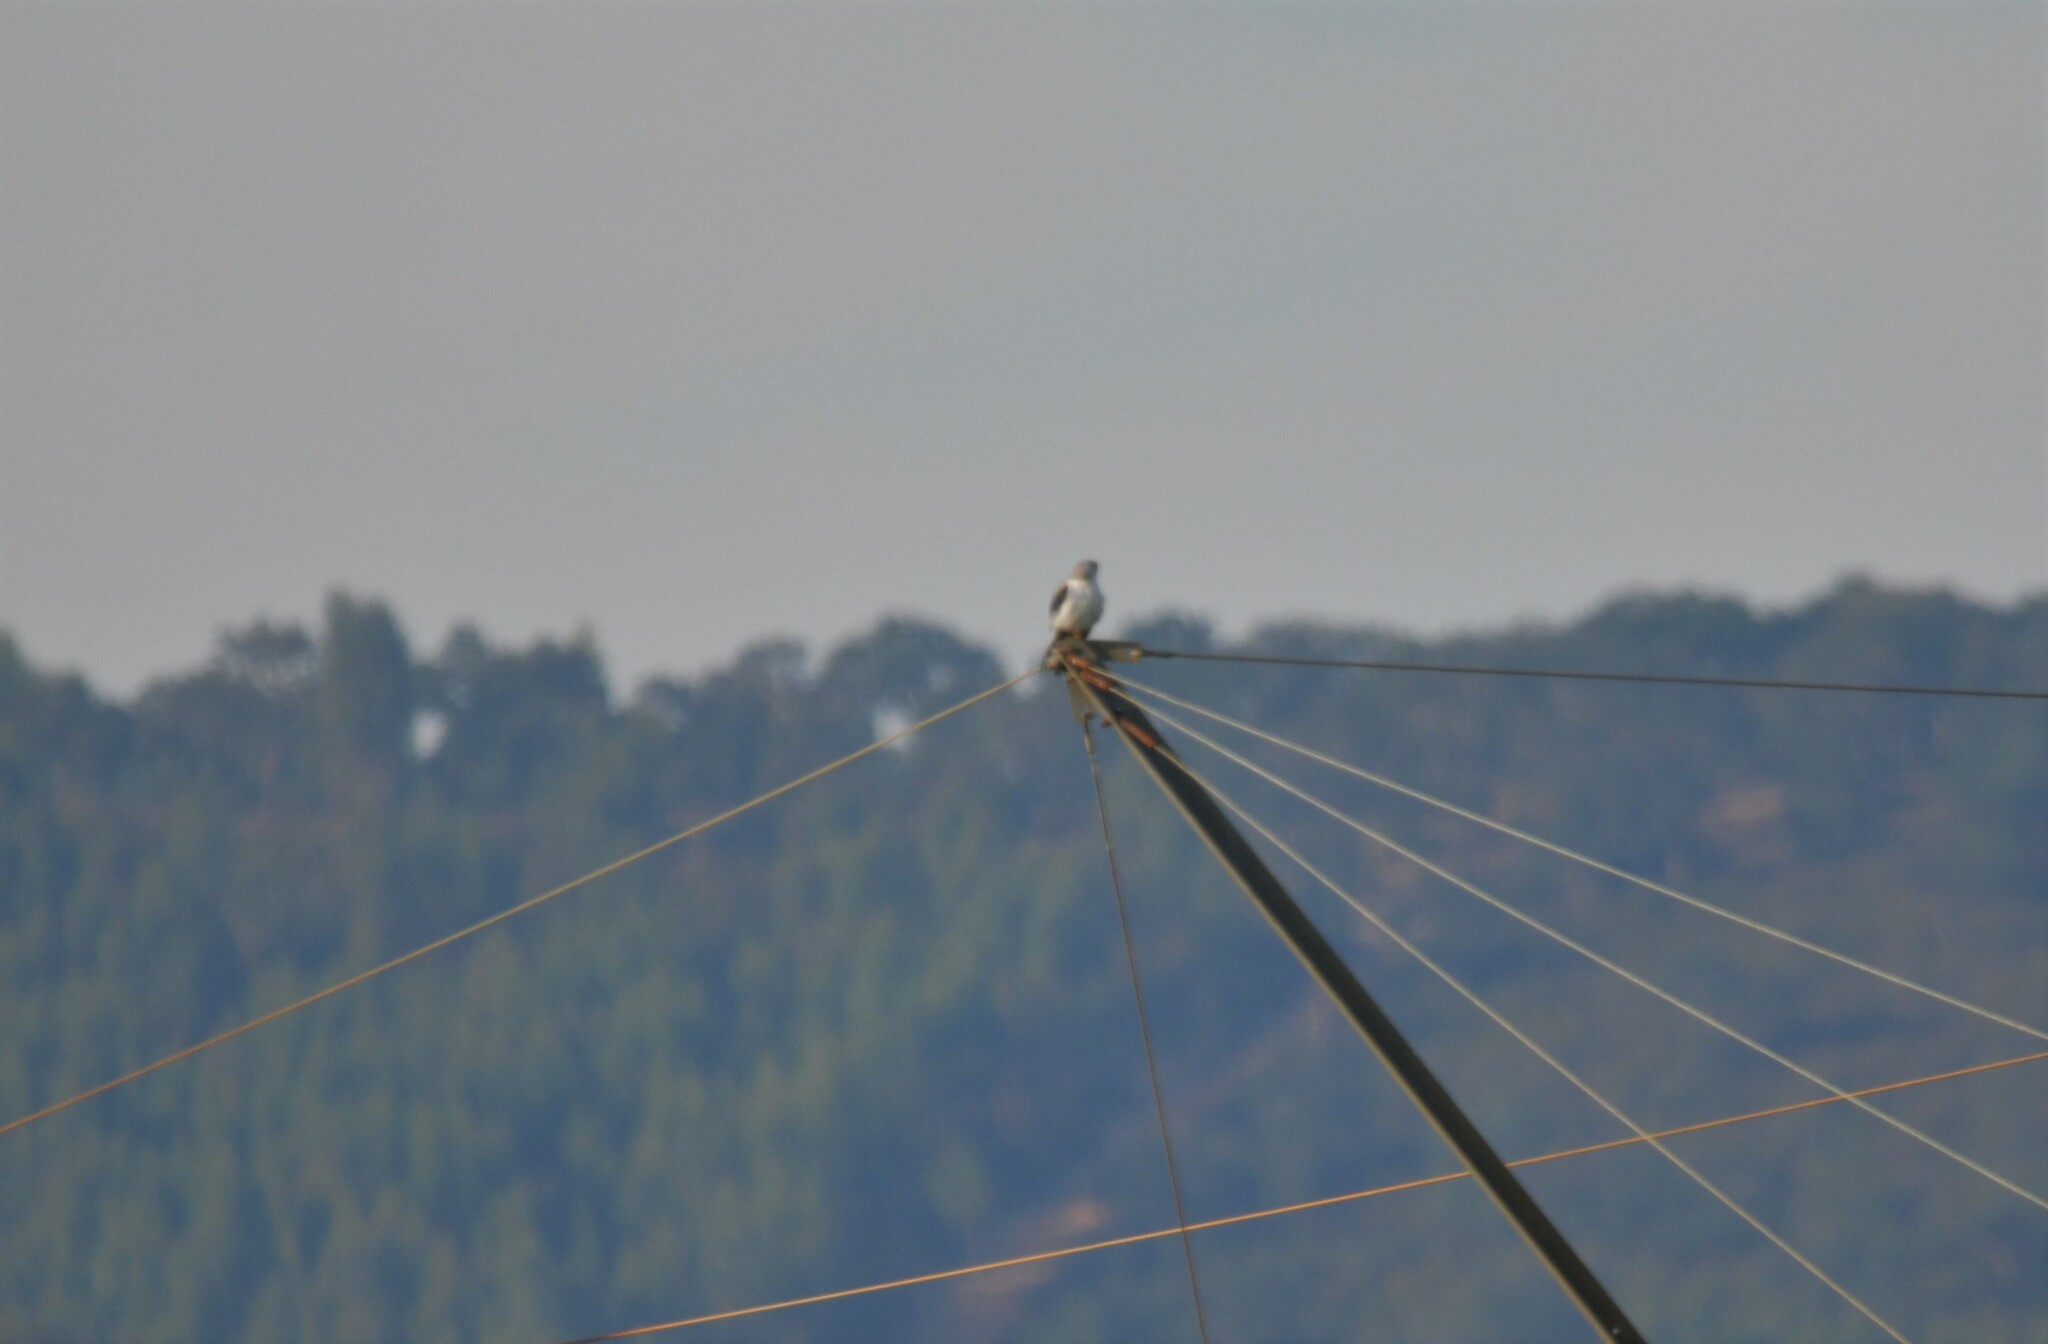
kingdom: Animalia
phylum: Chordata
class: Aves
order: Accipitriformes
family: Pandionidae
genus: Pandion
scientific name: Pandion haliaetus
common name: Osprey
